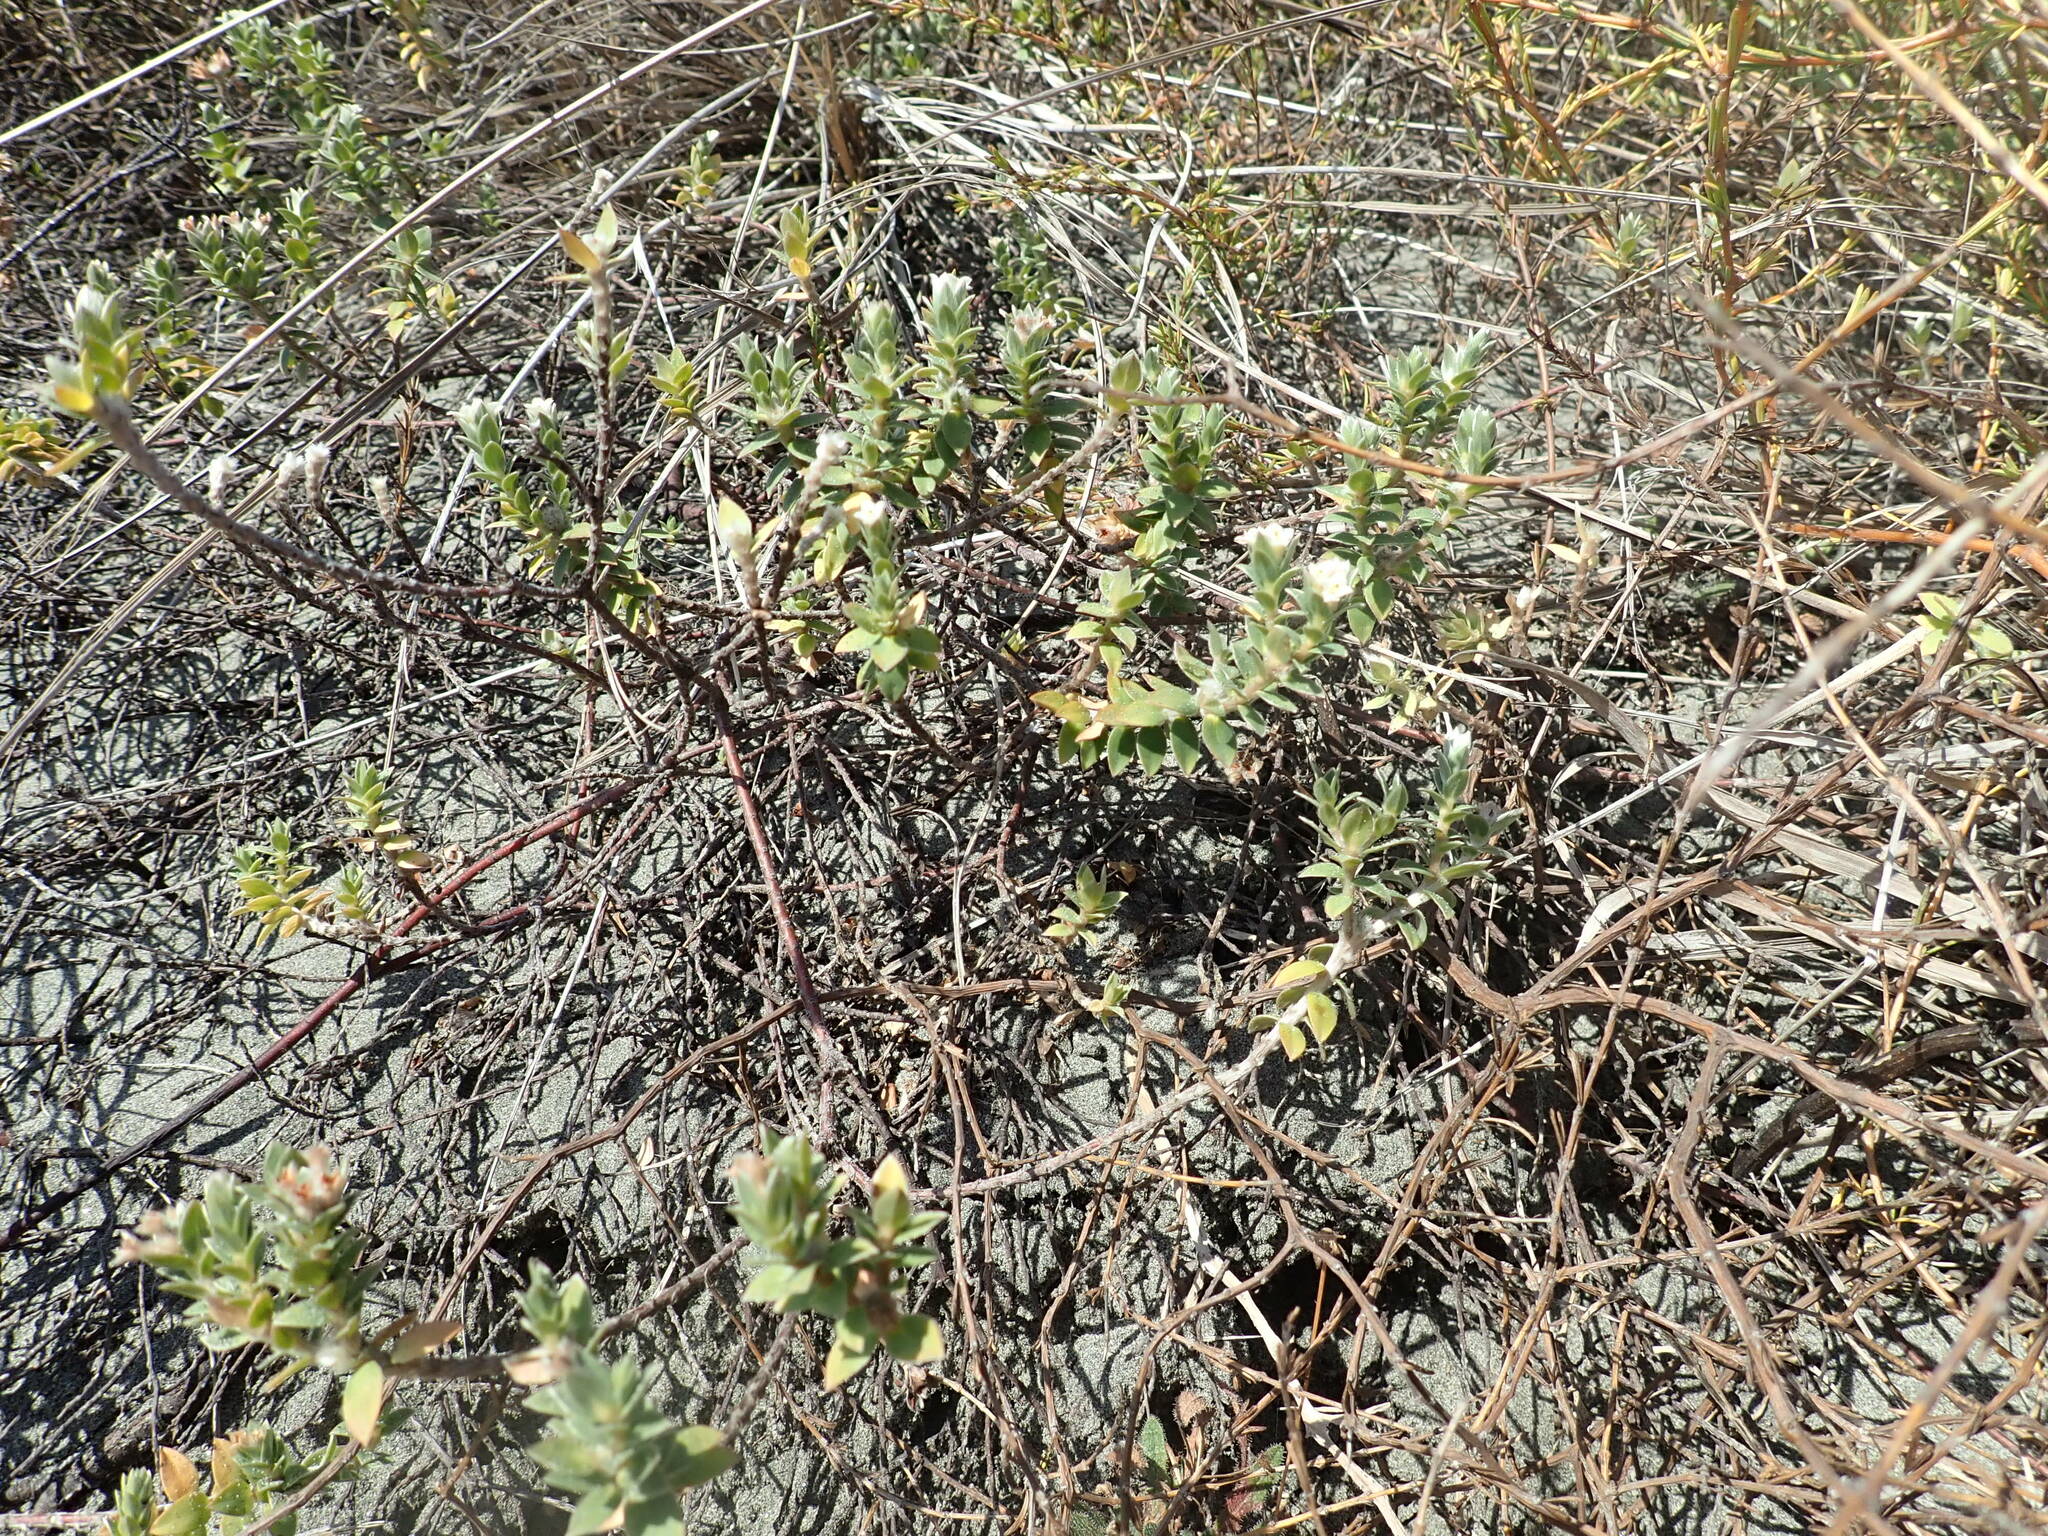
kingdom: Plantae
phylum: Tracheophyta
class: Magnoliopsida
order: Malvales
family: Thymelaeaceae
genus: Pimelea
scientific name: Pimelea villosa
